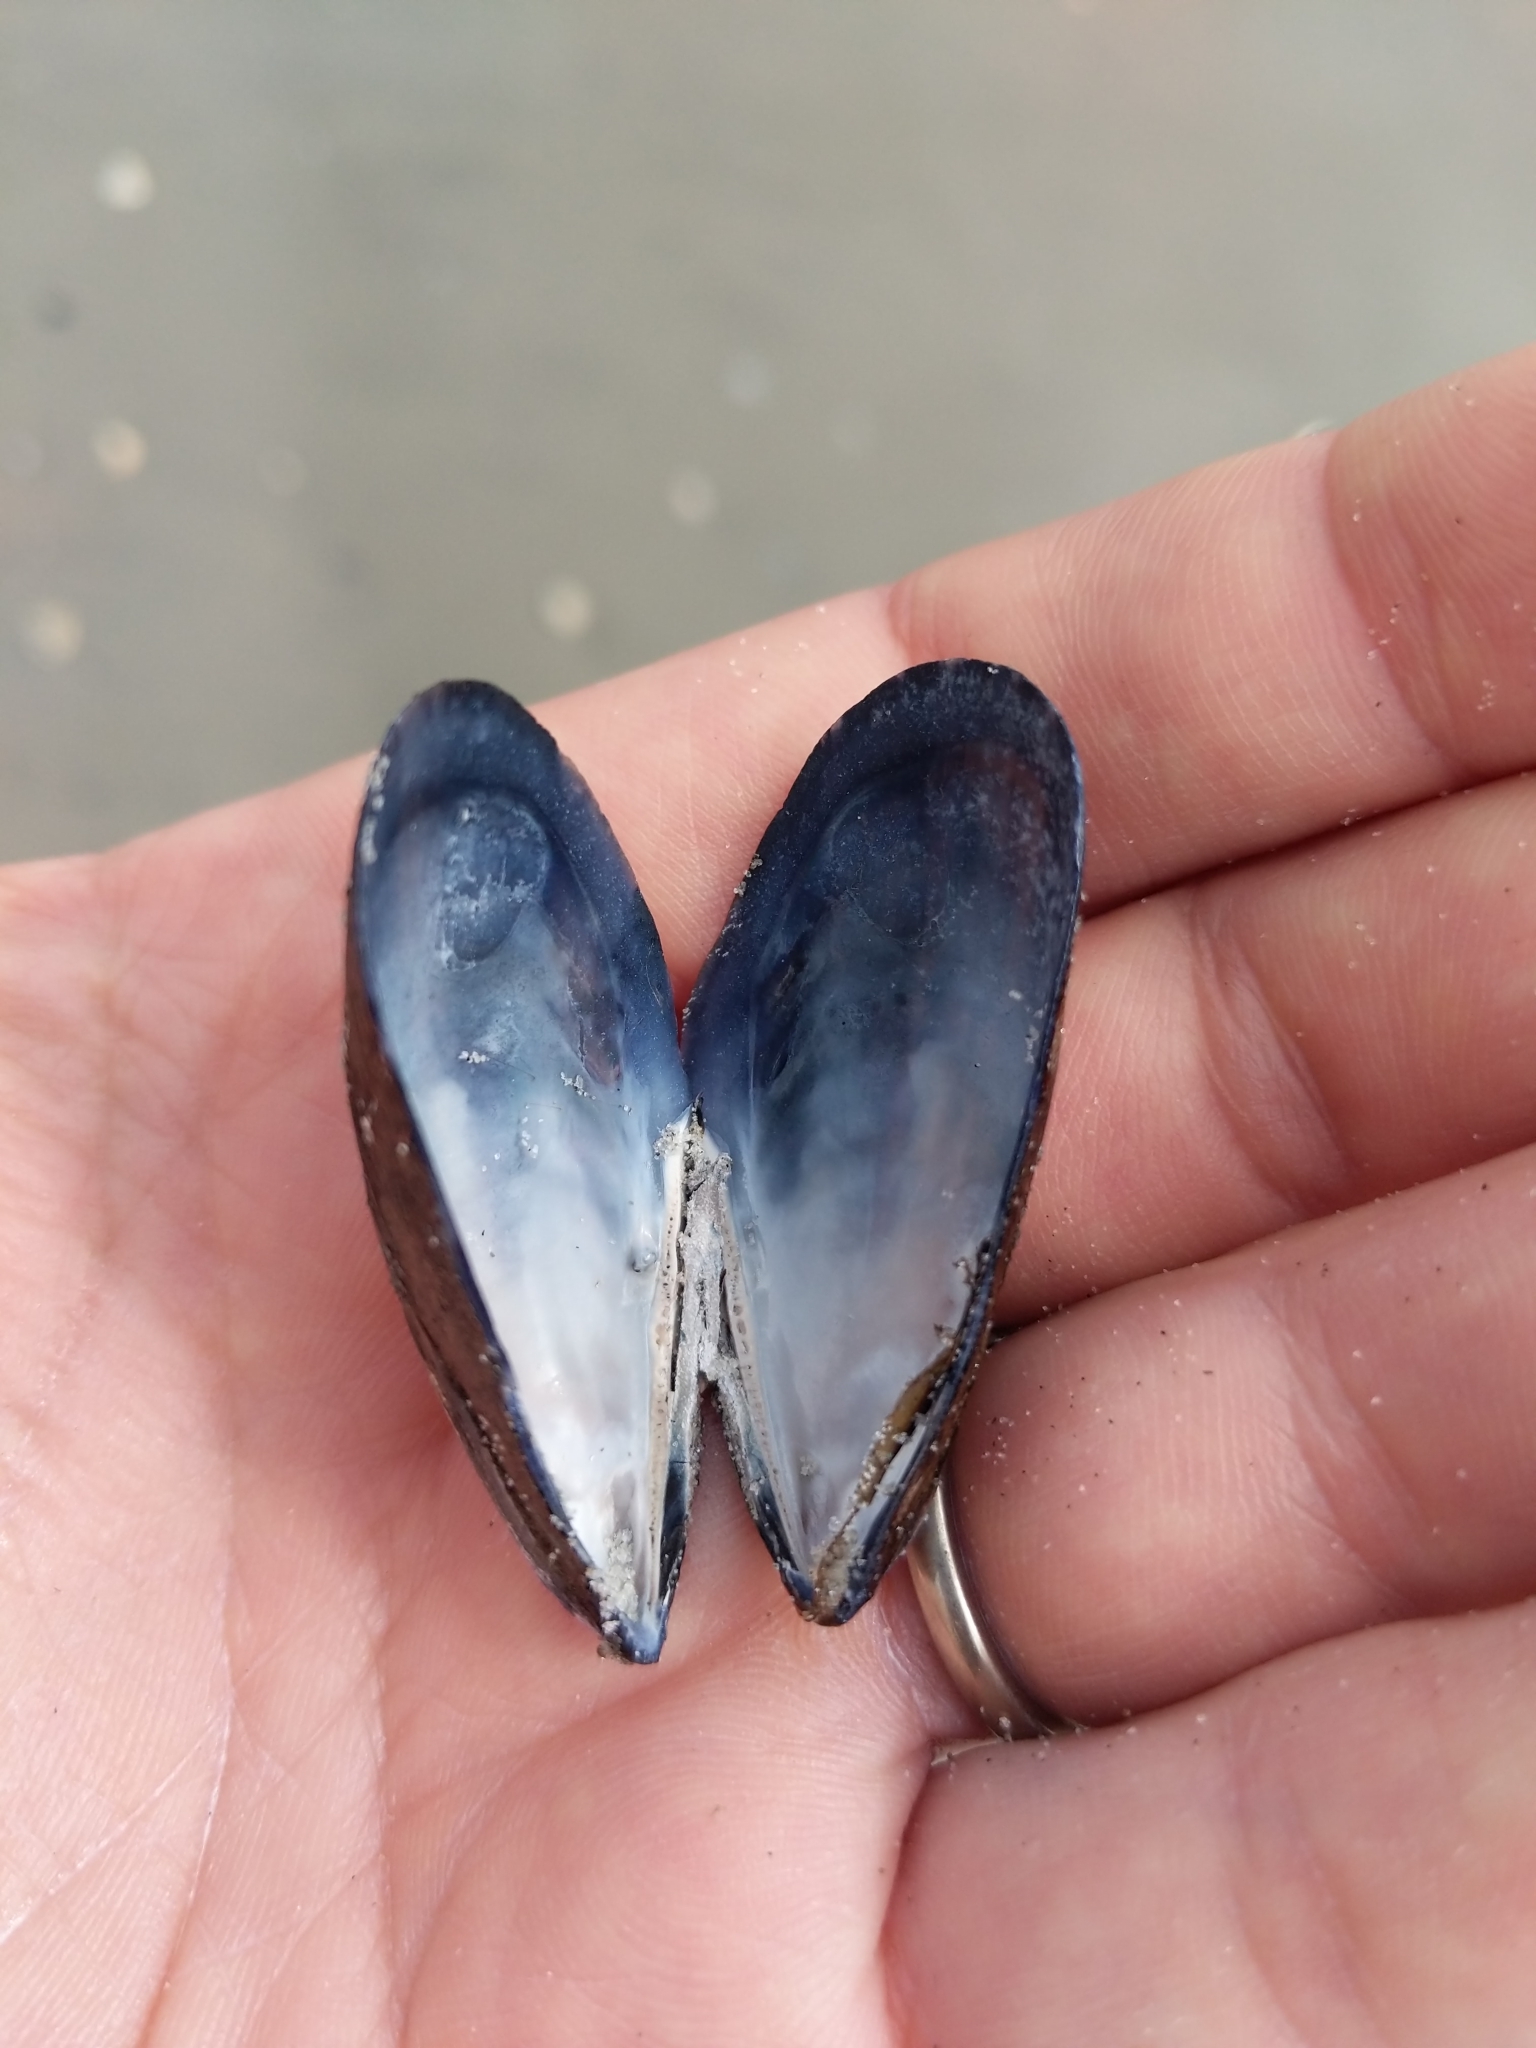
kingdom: Animalia
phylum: Mollusca
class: Bivalvia
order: Mytilida
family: Mytilidae
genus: Mytilus
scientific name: Mytilus edulis
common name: Blue mussel
